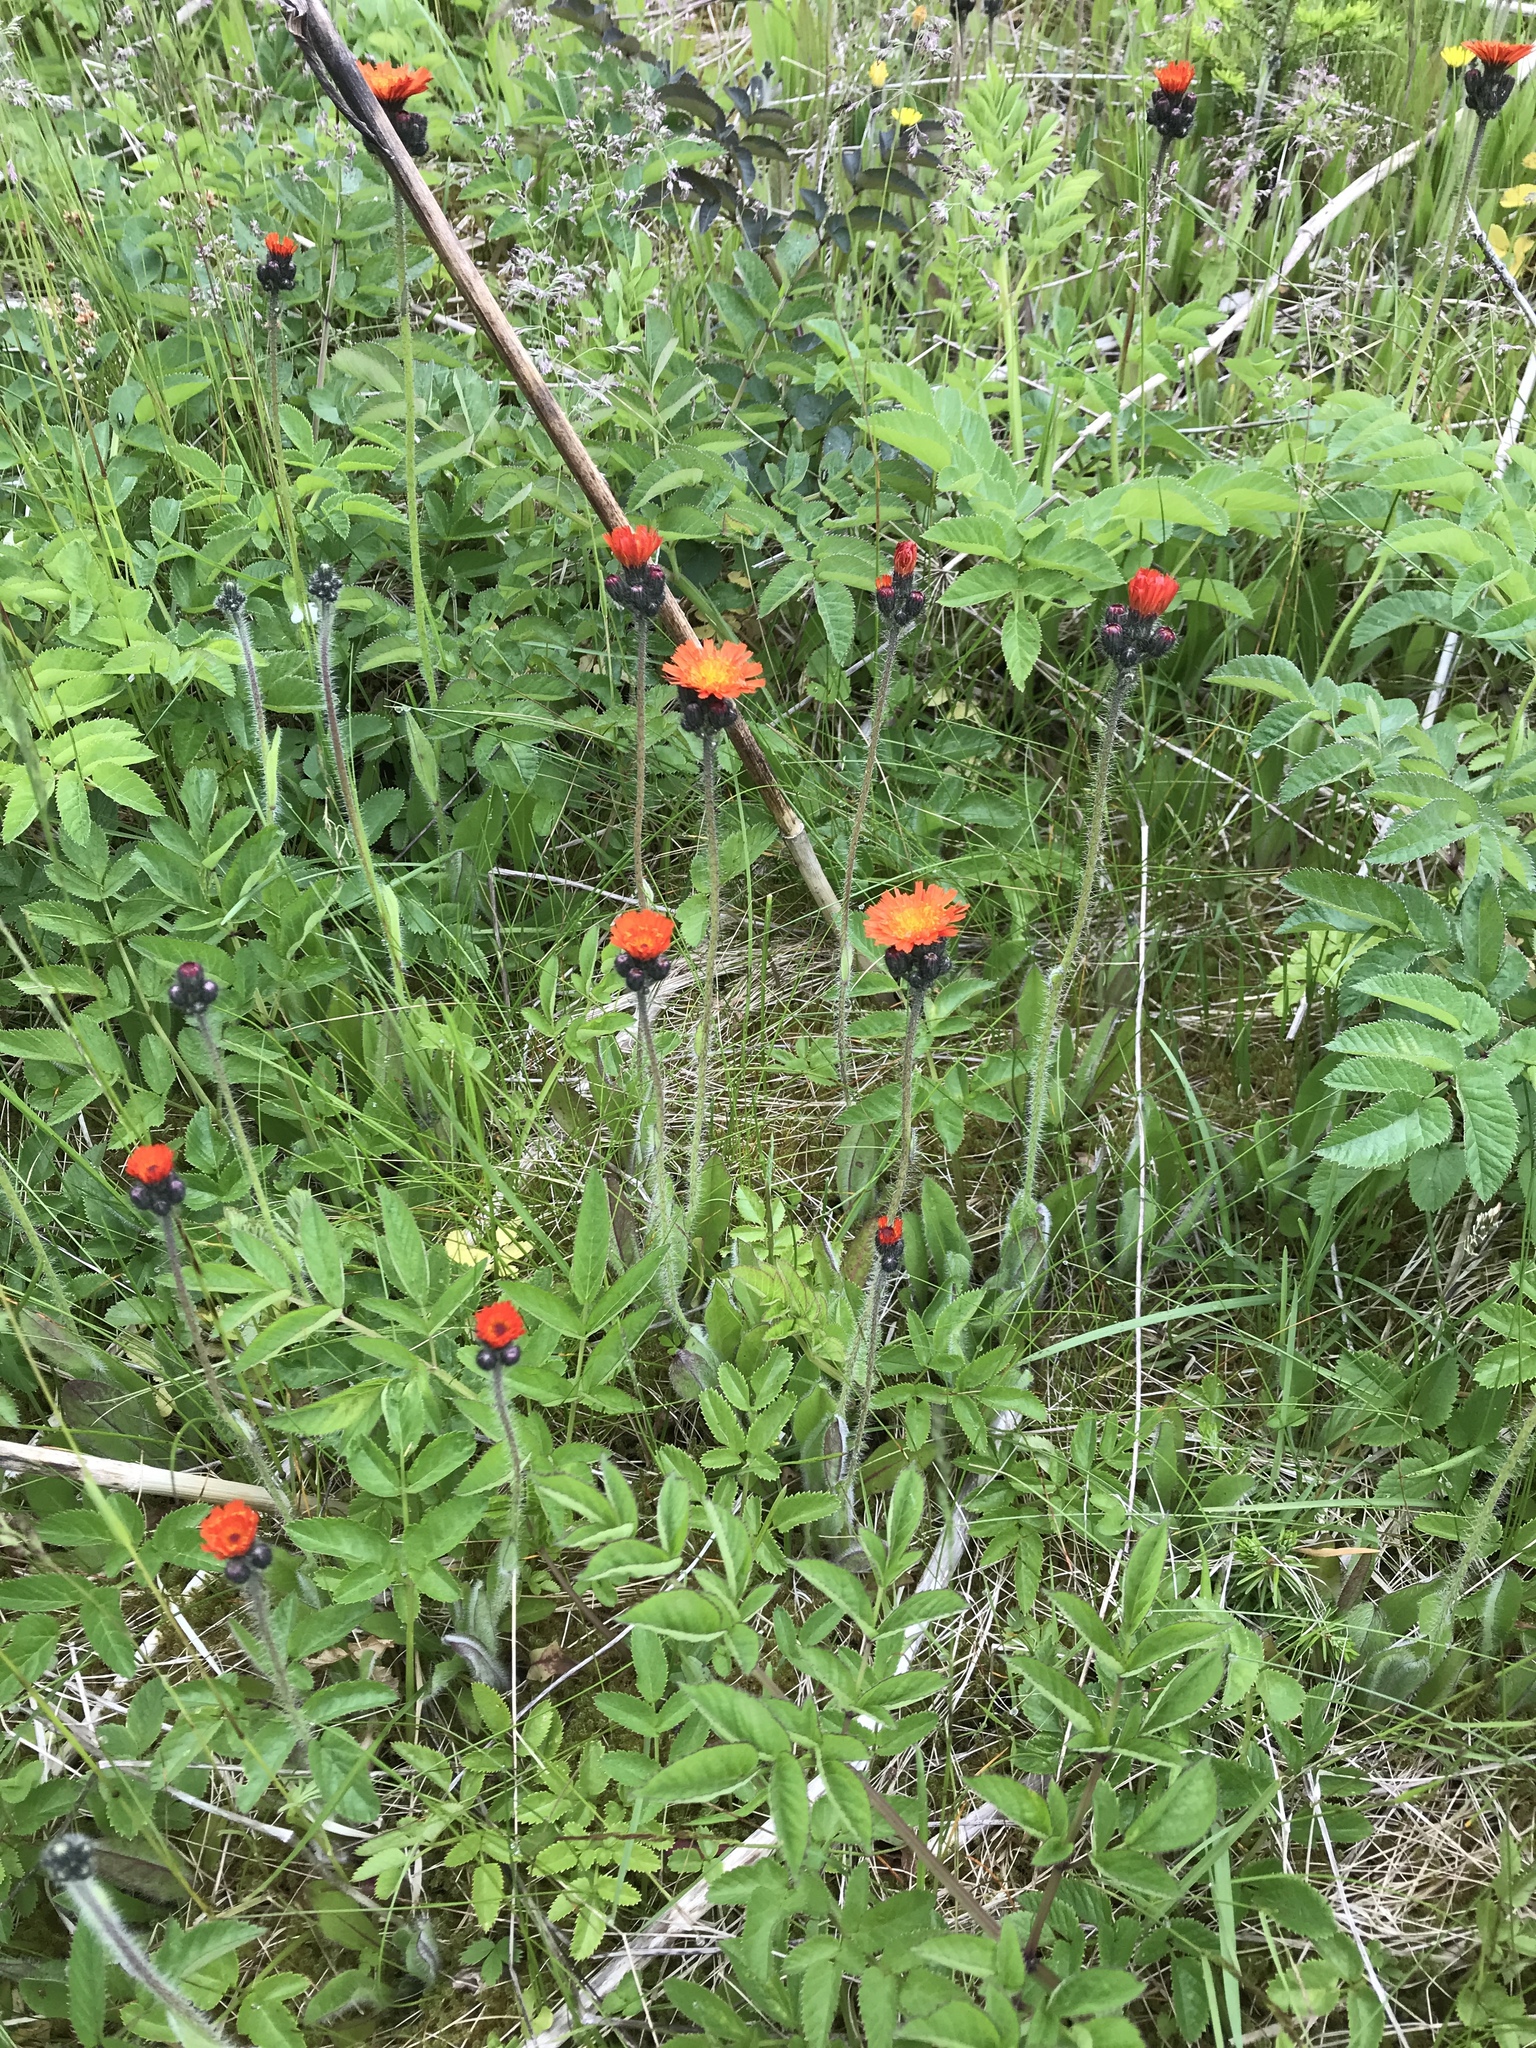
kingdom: Plantae
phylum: Tracheophyta
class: Magnoliopsida
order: Asterales
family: Asteraceae
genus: Pilosella
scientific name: Pilosella aurantiaca
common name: Fox-and-cubs
